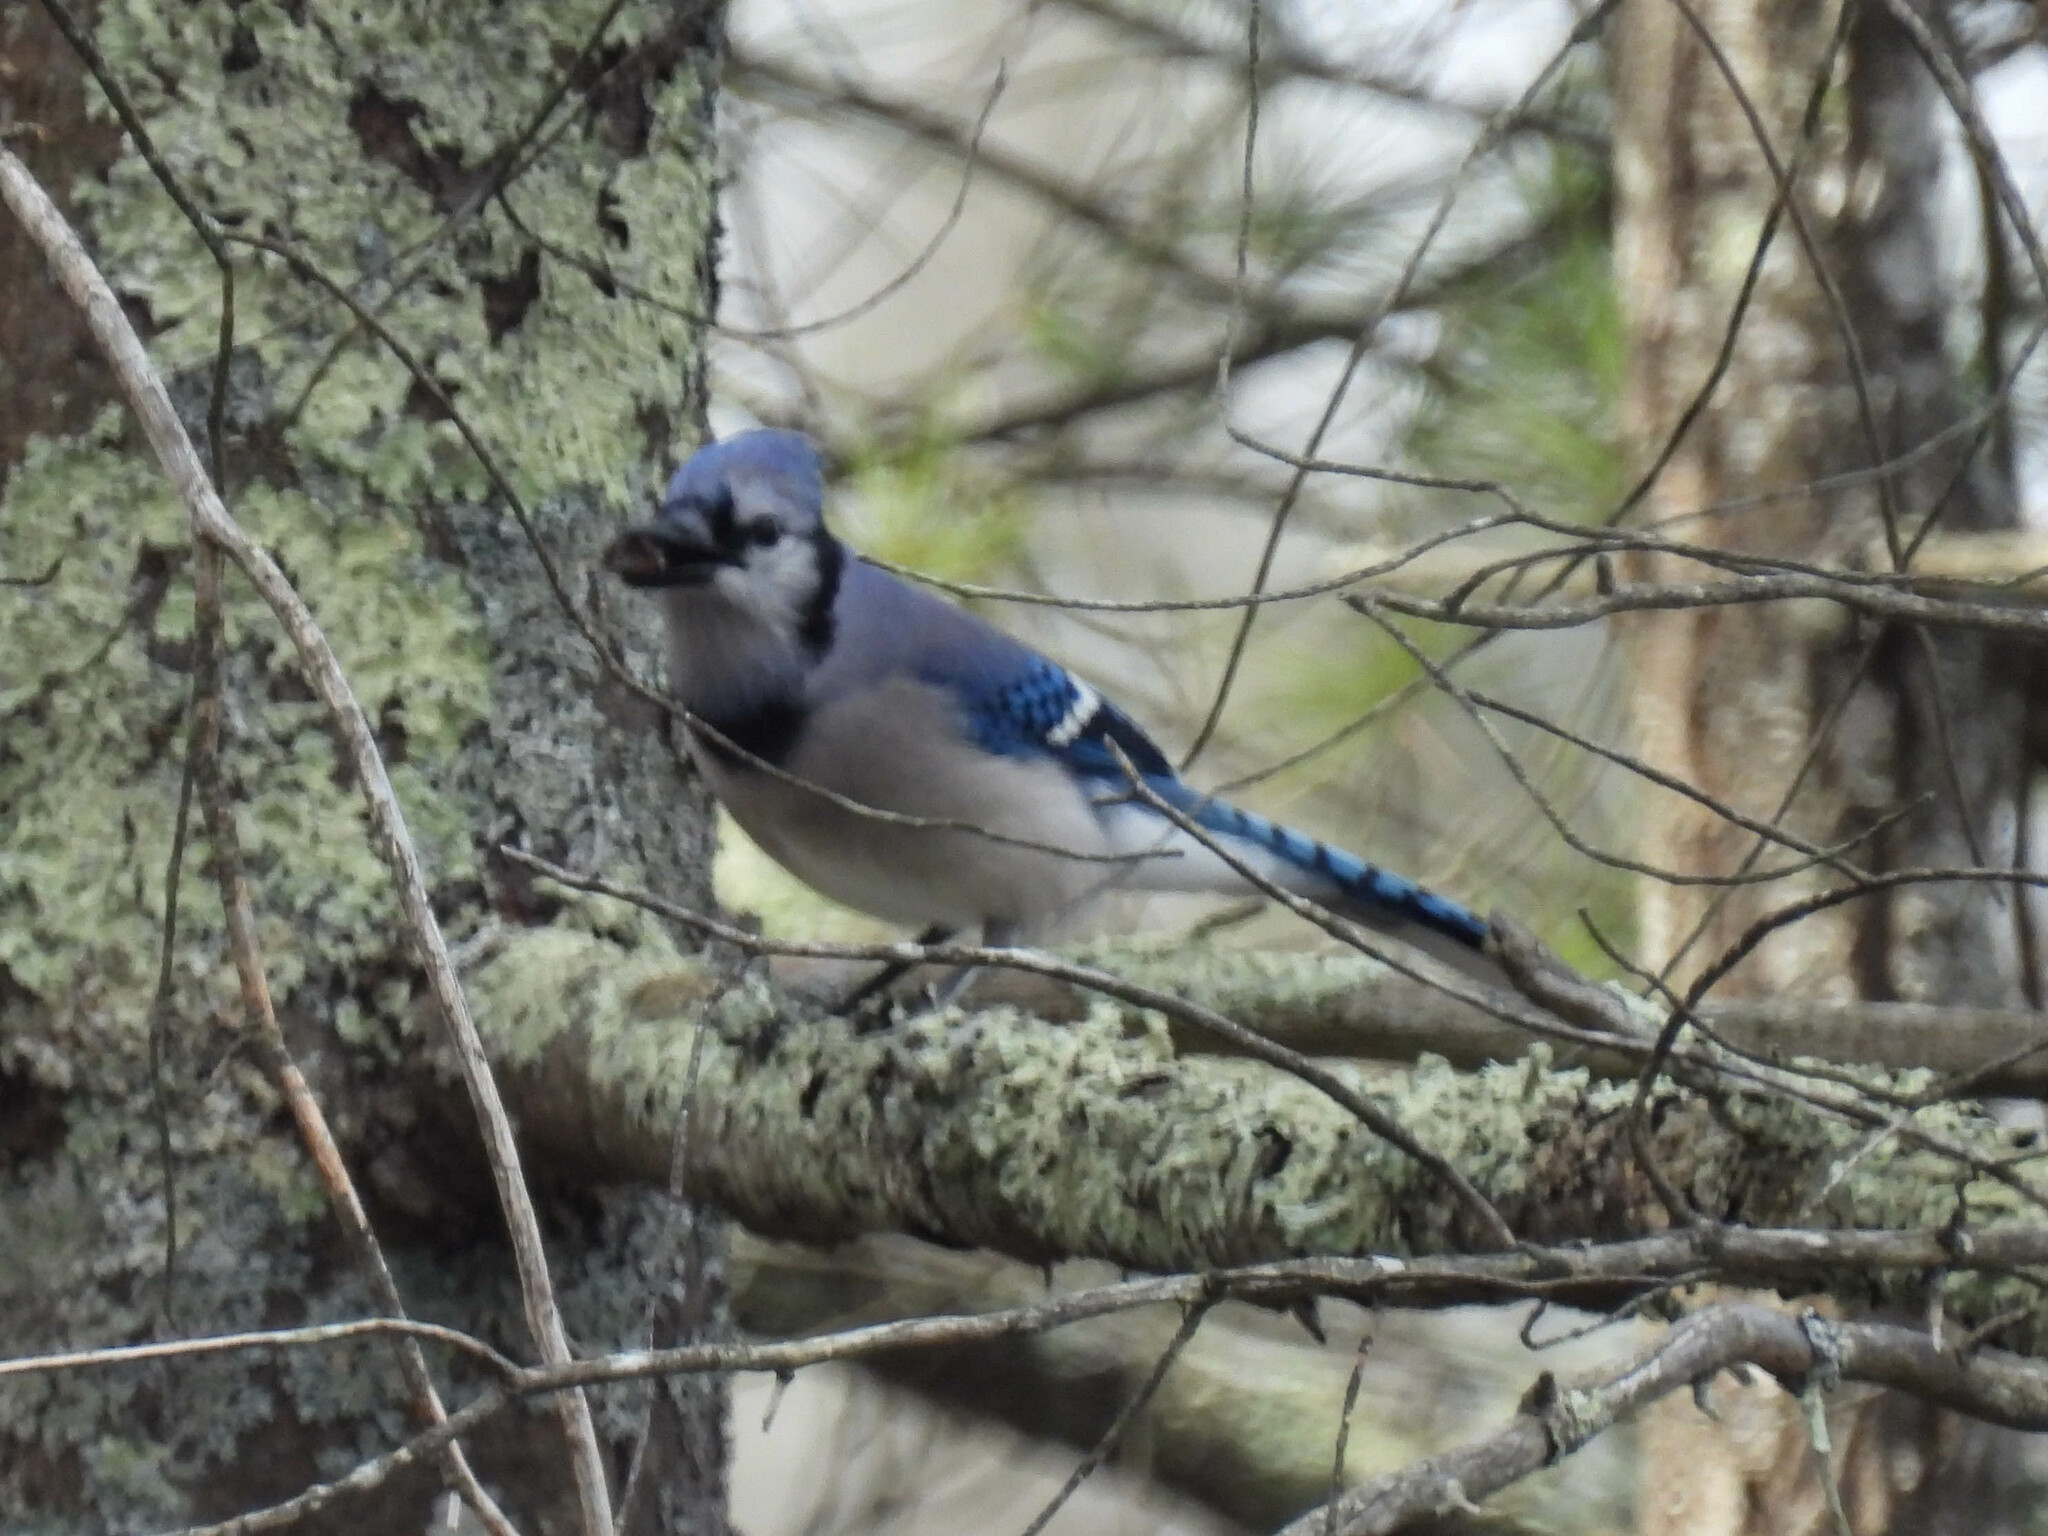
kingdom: Animalia
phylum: Chordata
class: Aves
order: Passeriformes
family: Corvidae
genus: Cyanocitta
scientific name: Cyanocitta cristata
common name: Blue jay
